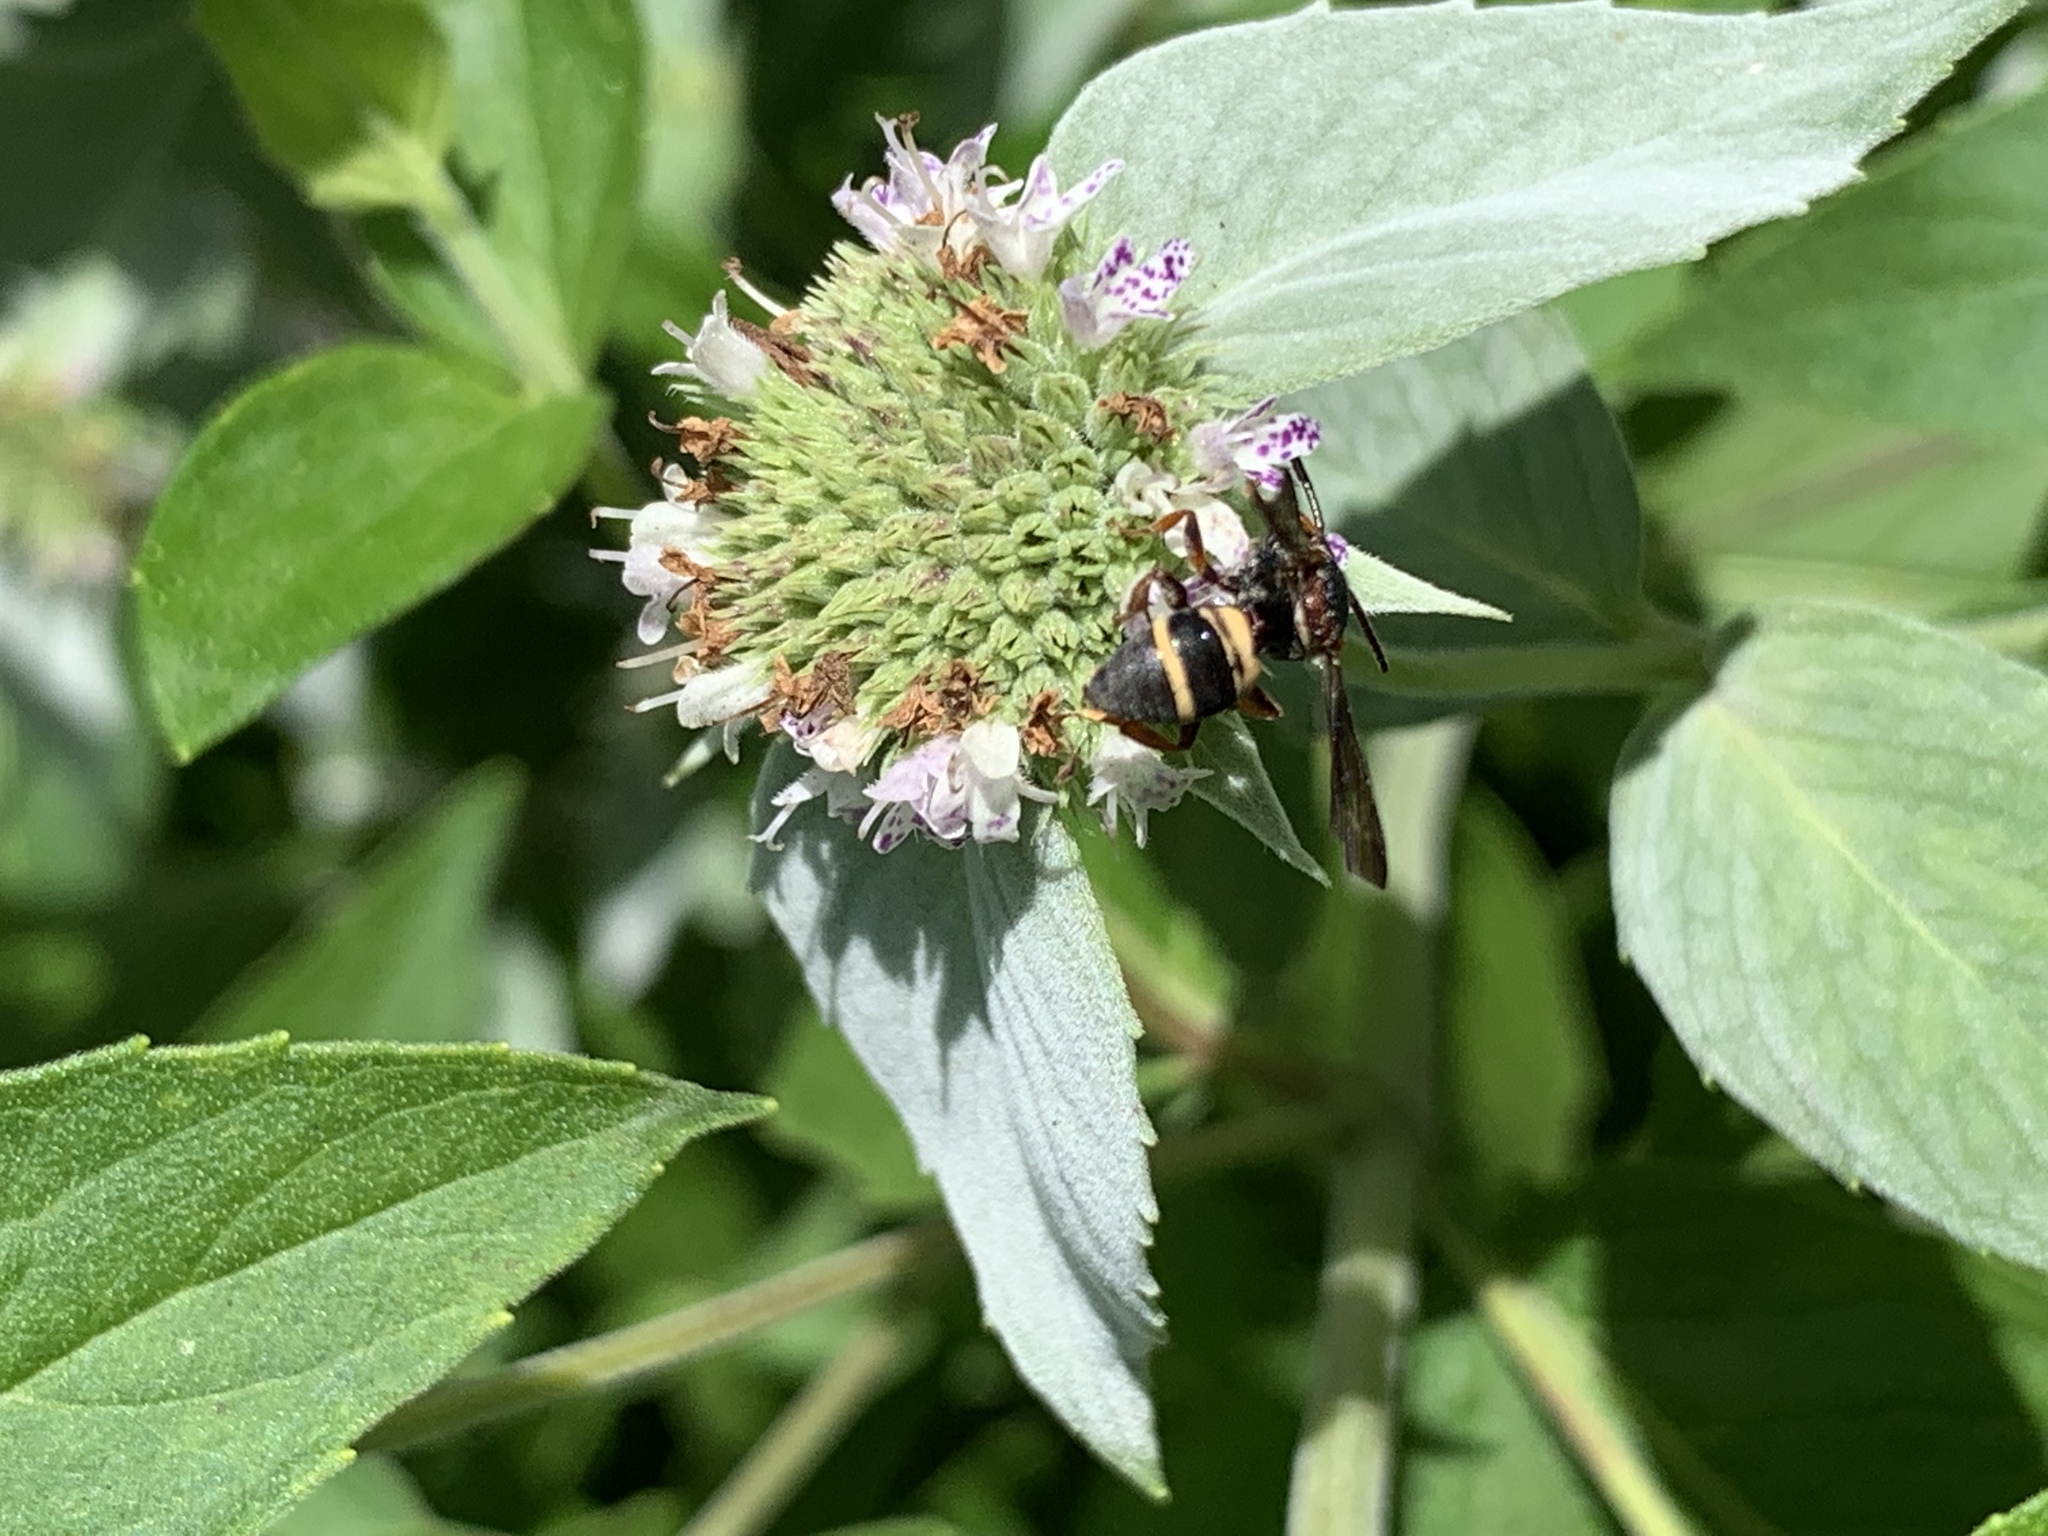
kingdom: Animalia
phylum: Arthropoda
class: Insecta
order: Hymenoptera
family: Apidae
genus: Epeolus
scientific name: Epeolus bifasciatus
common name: Two-banded cellophane-cuckoo
